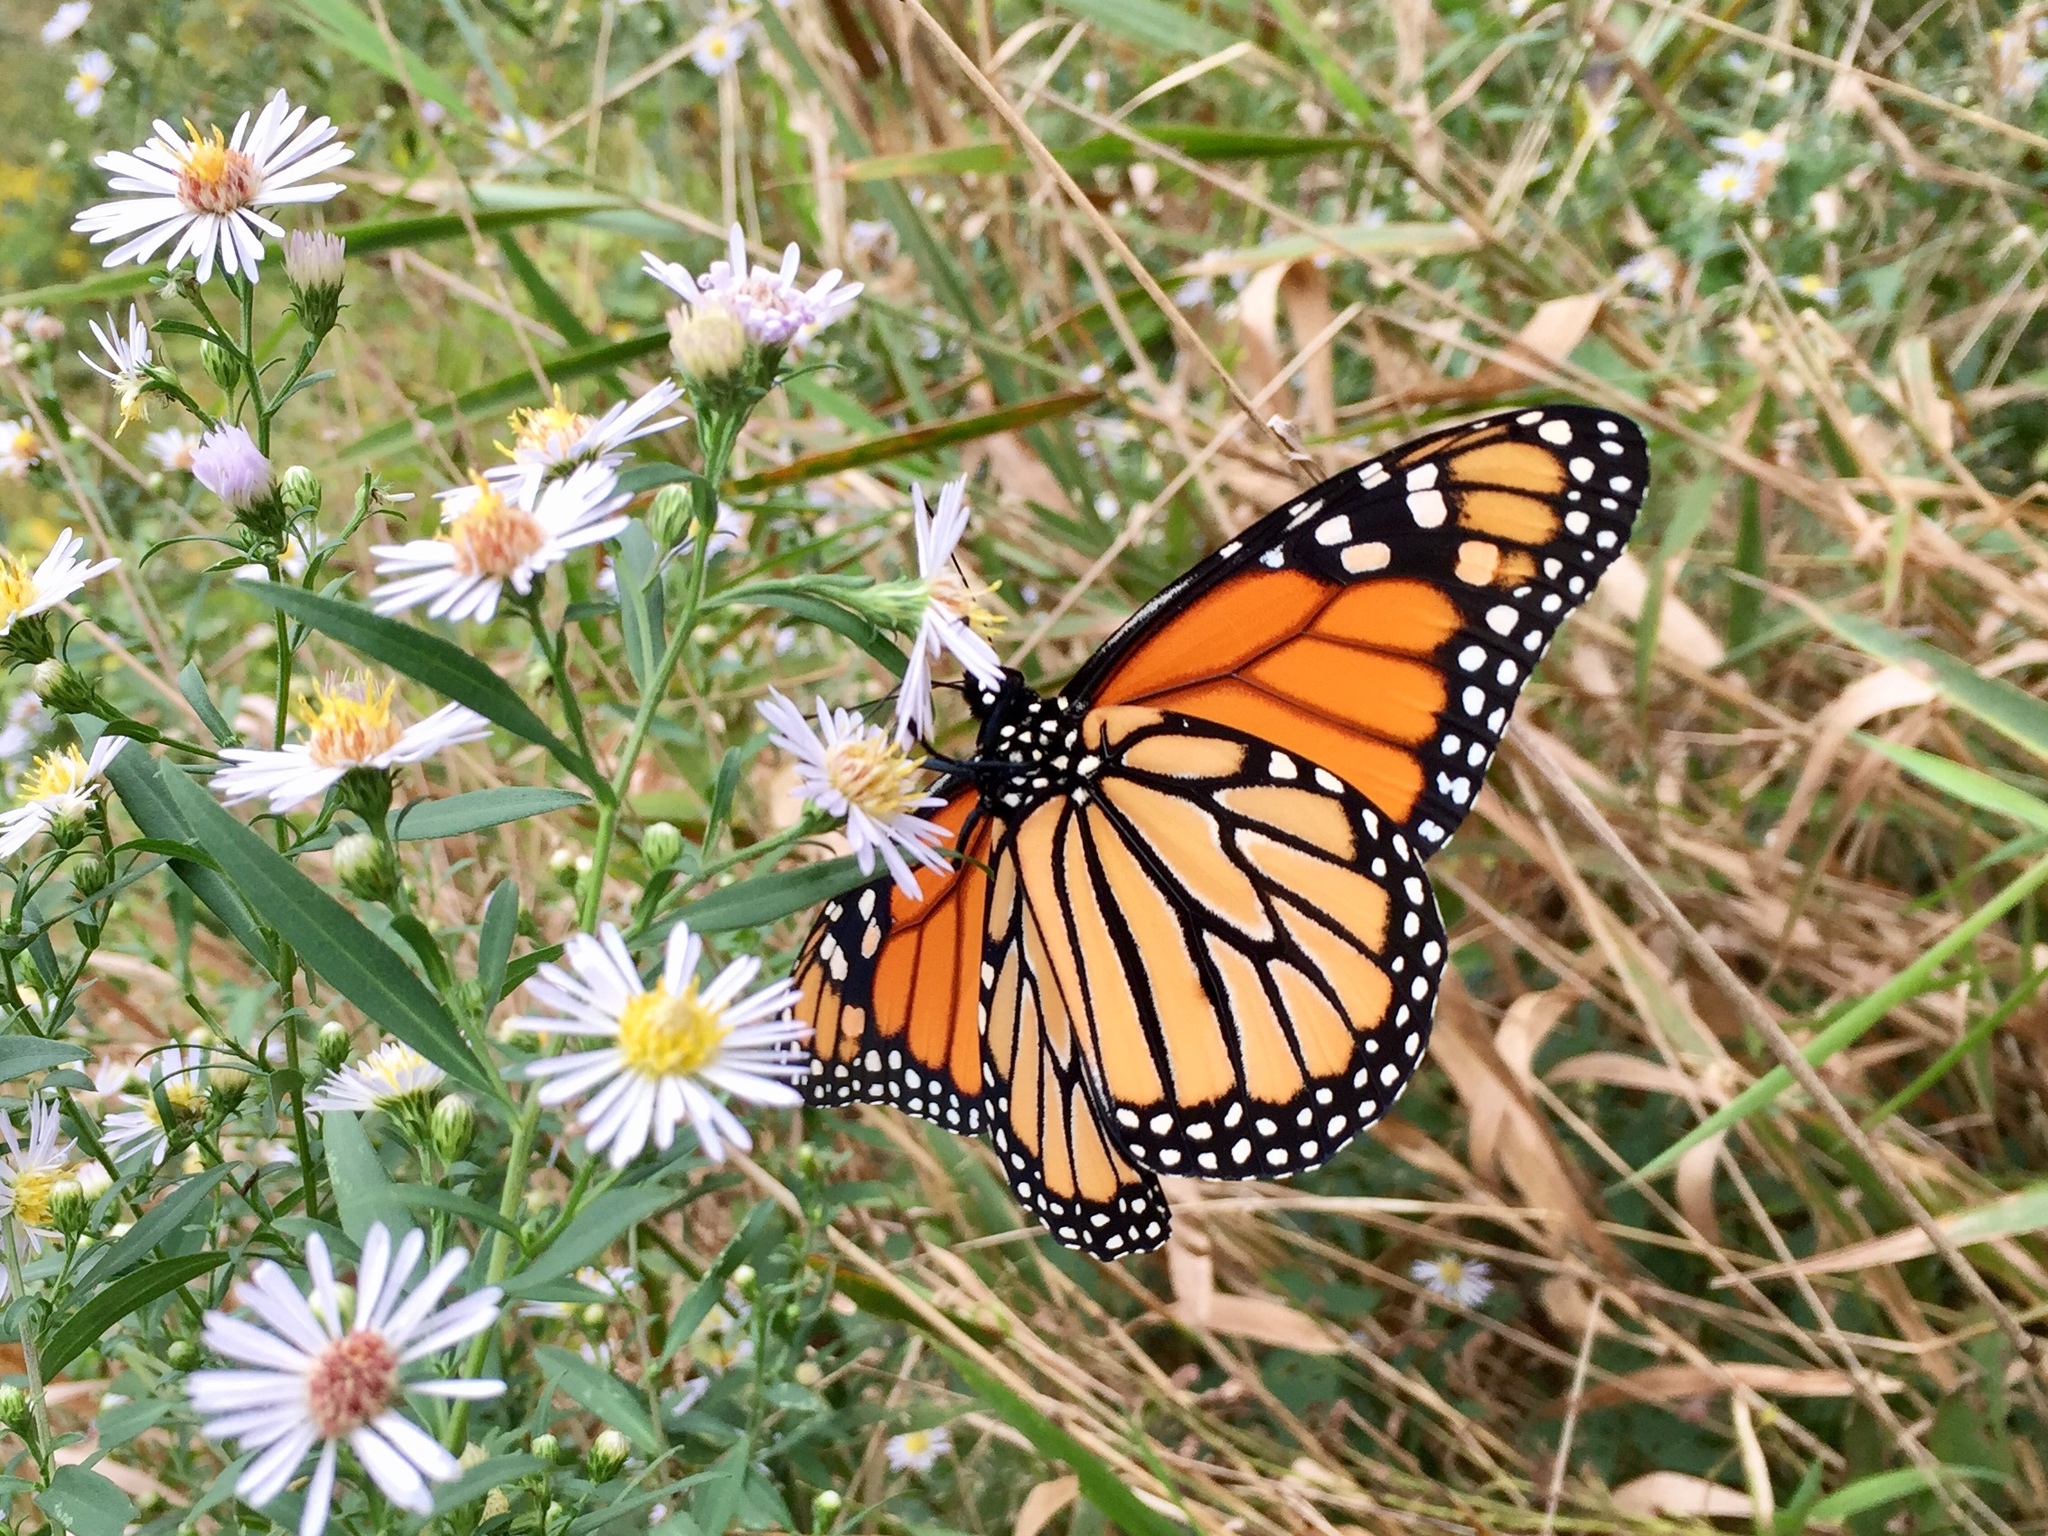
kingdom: Animalia
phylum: Arthropoda
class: Insecta
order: Lepidoptera
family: Nymphalidae
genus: Danaus
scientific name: Danaus plexippus
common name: Monarch
